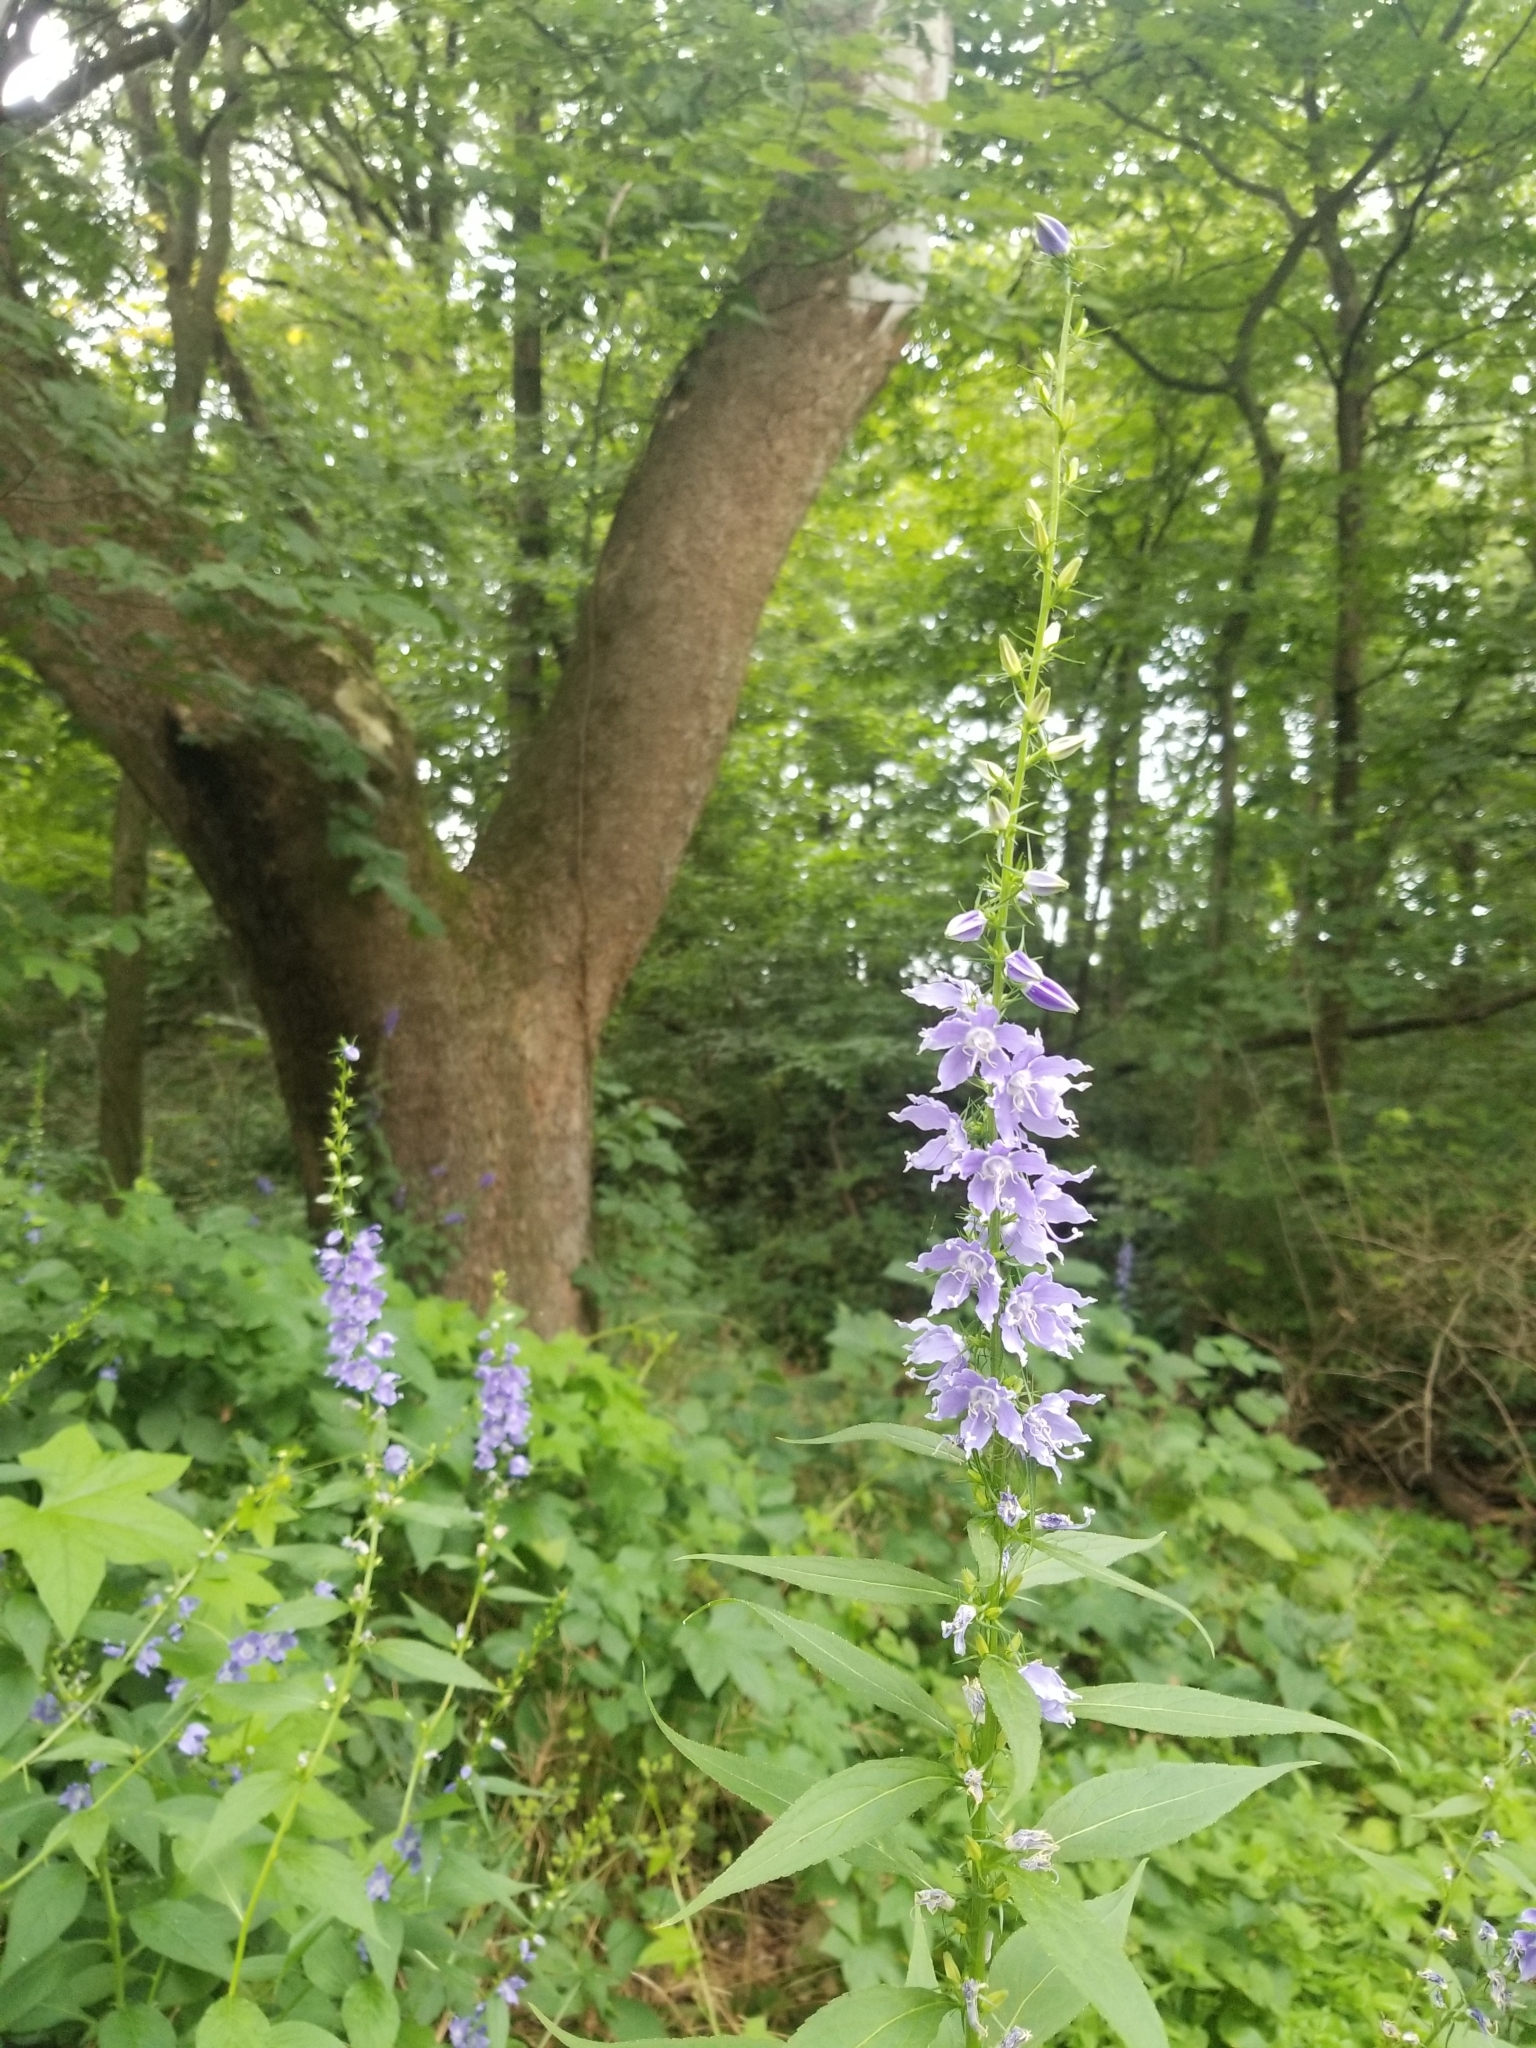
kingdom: Plantae
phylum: Tracheophyta
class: Magnoliopsida
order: Asterales
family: Campanulaceae
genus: Campanulastrum
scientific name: Campanulastrum americanum
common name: American bellflower
